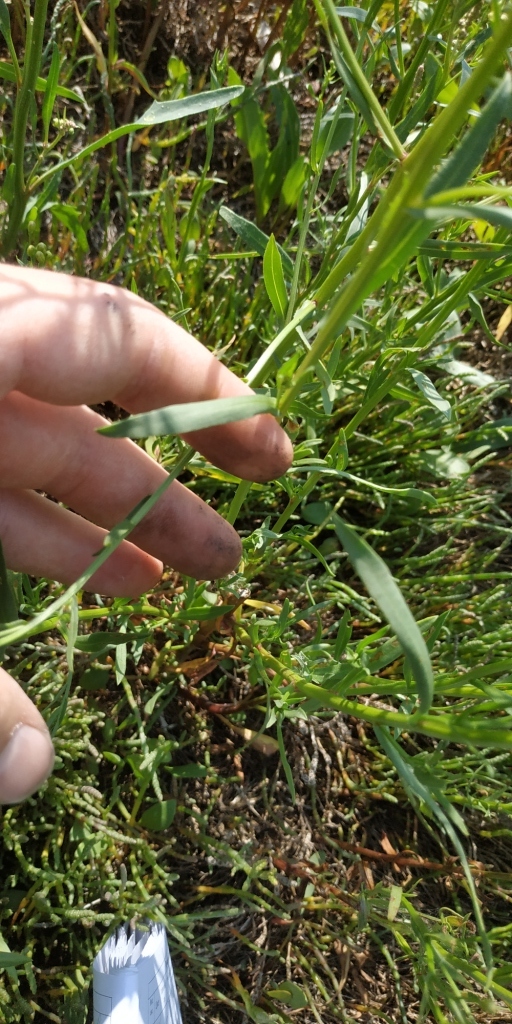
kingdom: Plantae
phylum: Tracheophyta
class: Magnoliopsida
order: Asterales
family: Asteraceae
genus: Tripolium
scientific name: Tripolium pannonicum
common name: Sea aster
